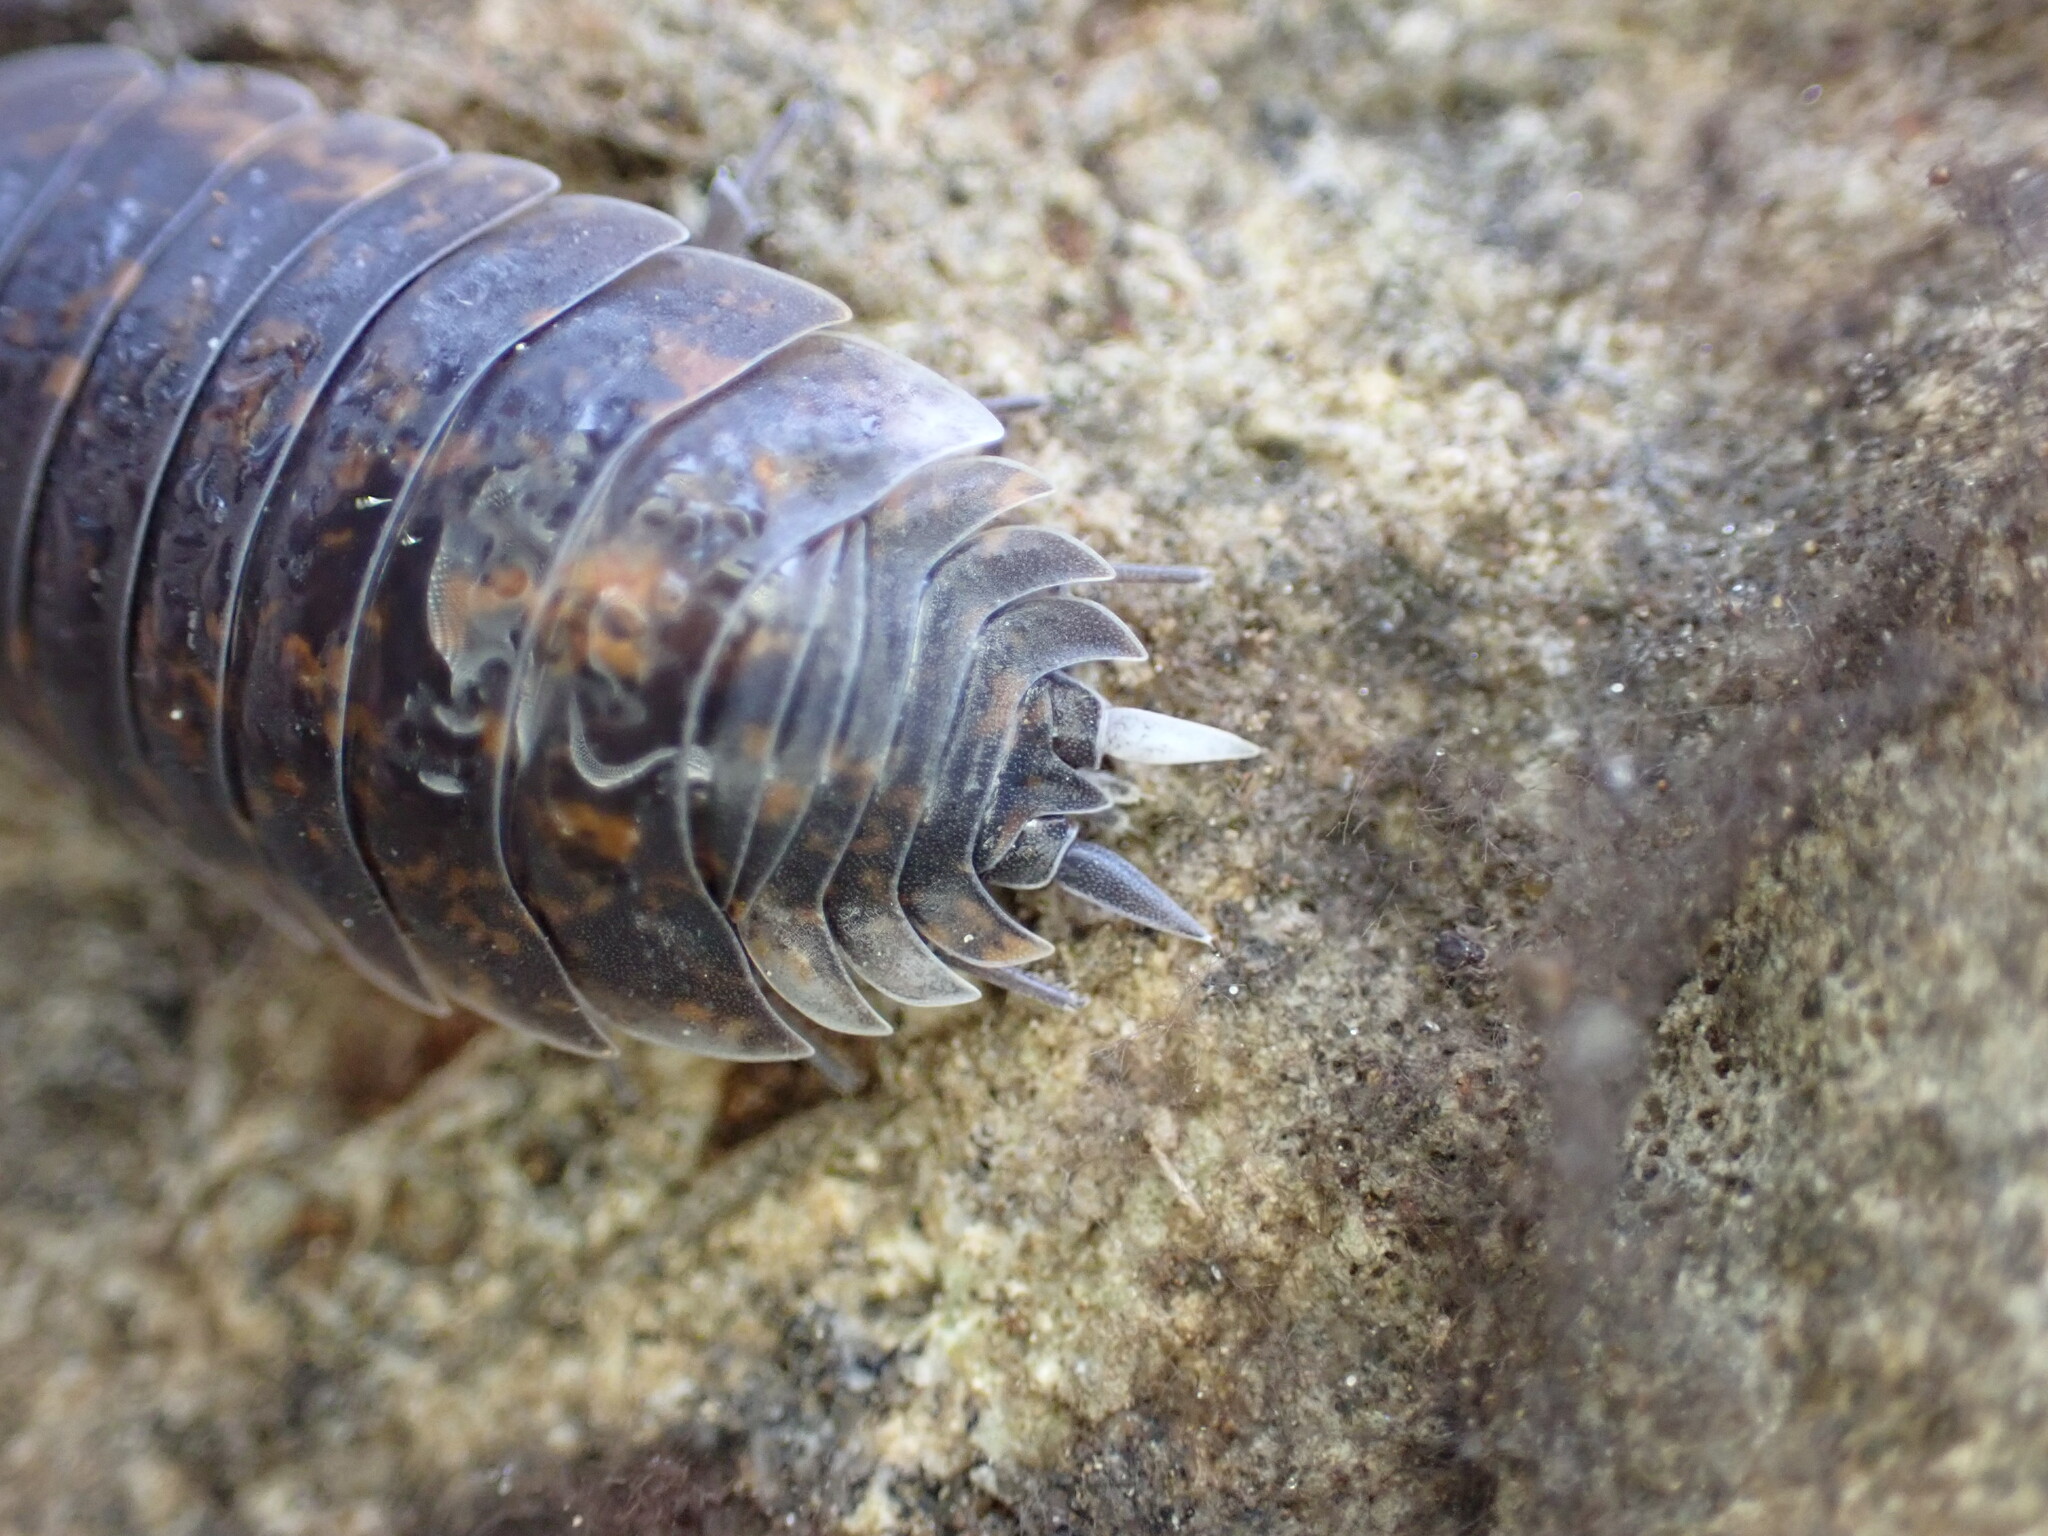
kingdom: Animalia
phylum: Arthropoda
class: Malacostraca
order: Isopoda
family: Porcellionidae
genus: Porcellio
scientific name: Porcellio orarum
